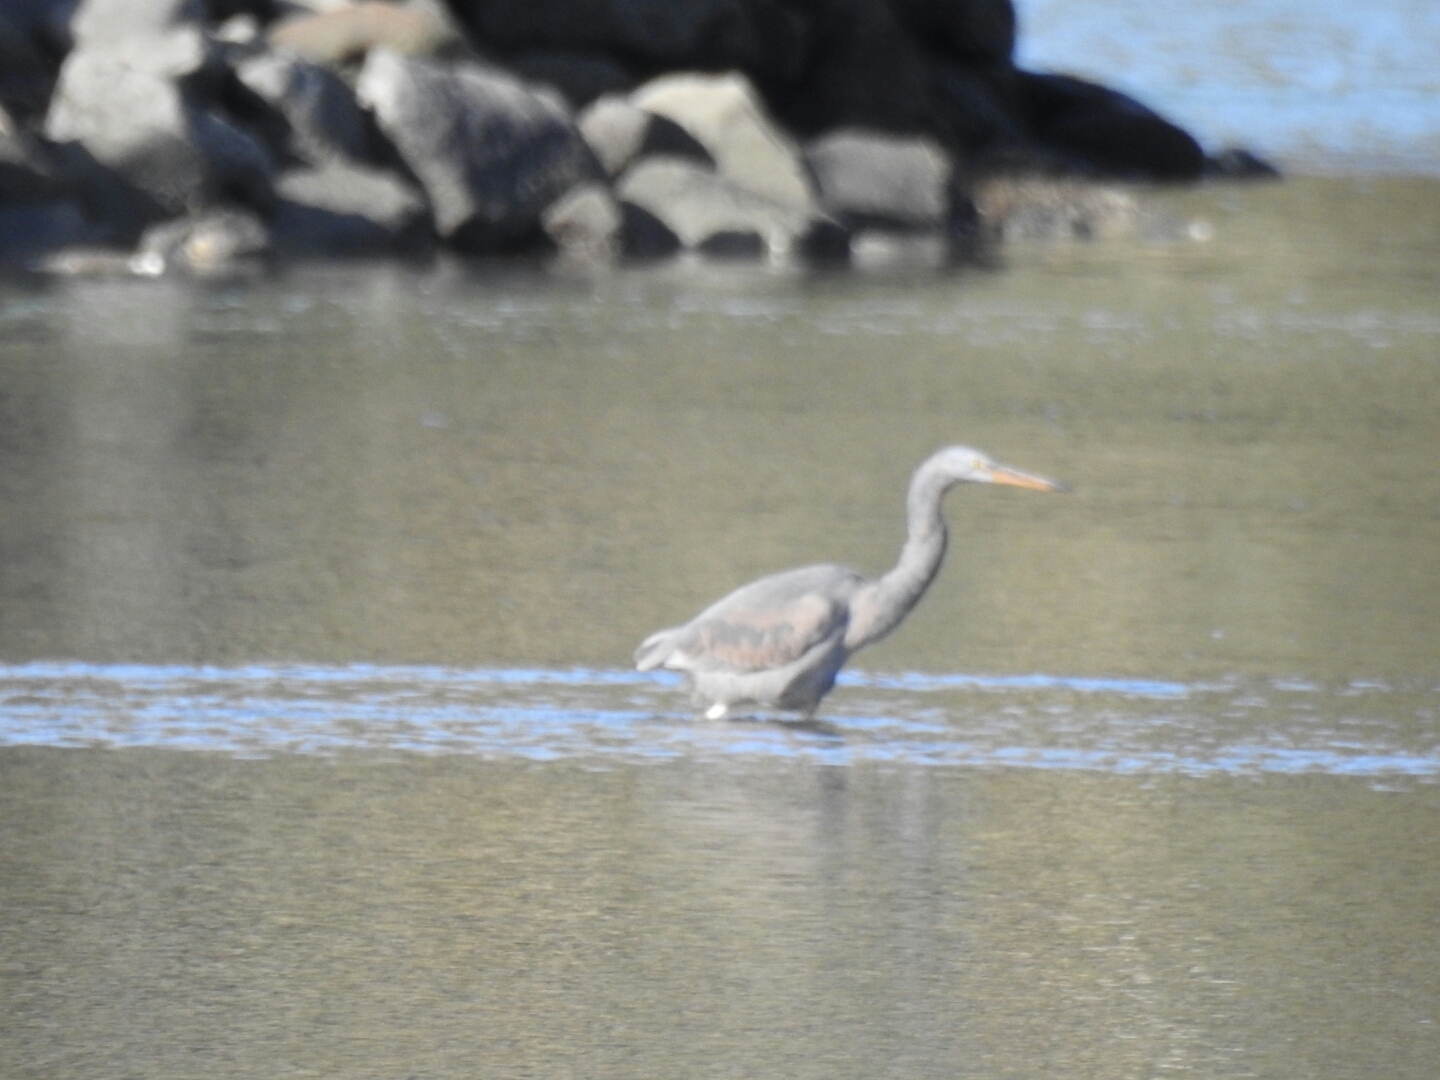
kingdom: Animalia
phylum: Chordata
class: Aves
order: Pelecaniformes
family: Ardeidae
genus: Egretta
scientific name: Egretta sacra
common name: Pacific reef heron
